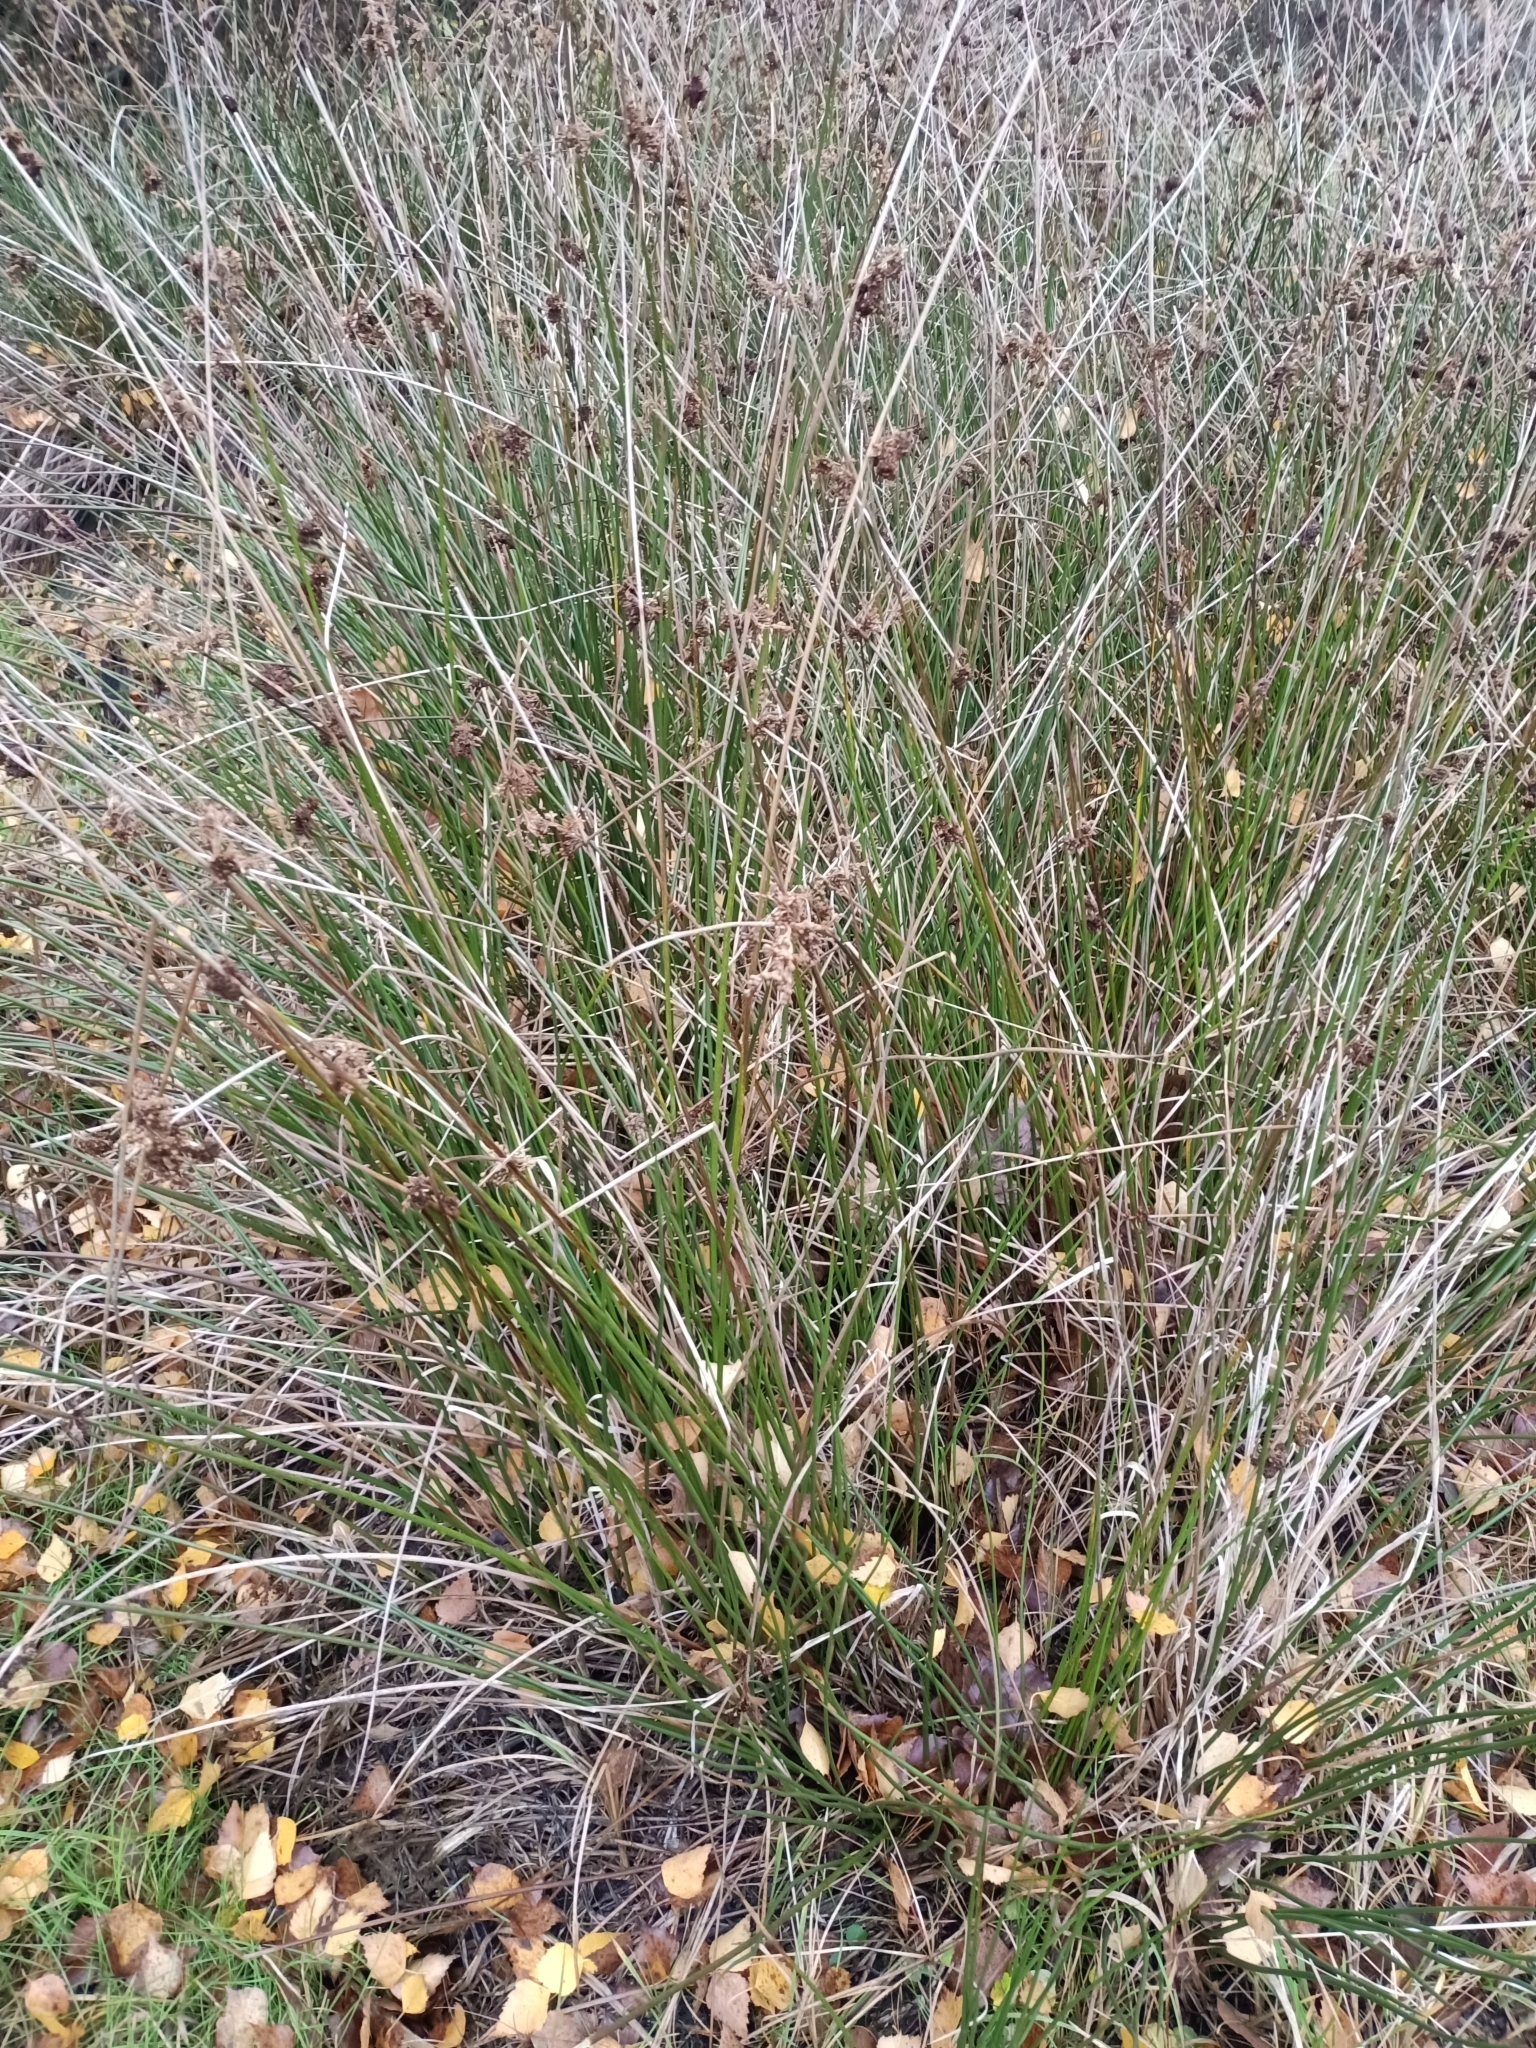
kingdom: Plantae
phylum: Tracheophyta
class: Liliopsida
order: Poales
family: Juncaceae
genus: Juncus
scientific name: Juncus effusus
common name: Soft rush
